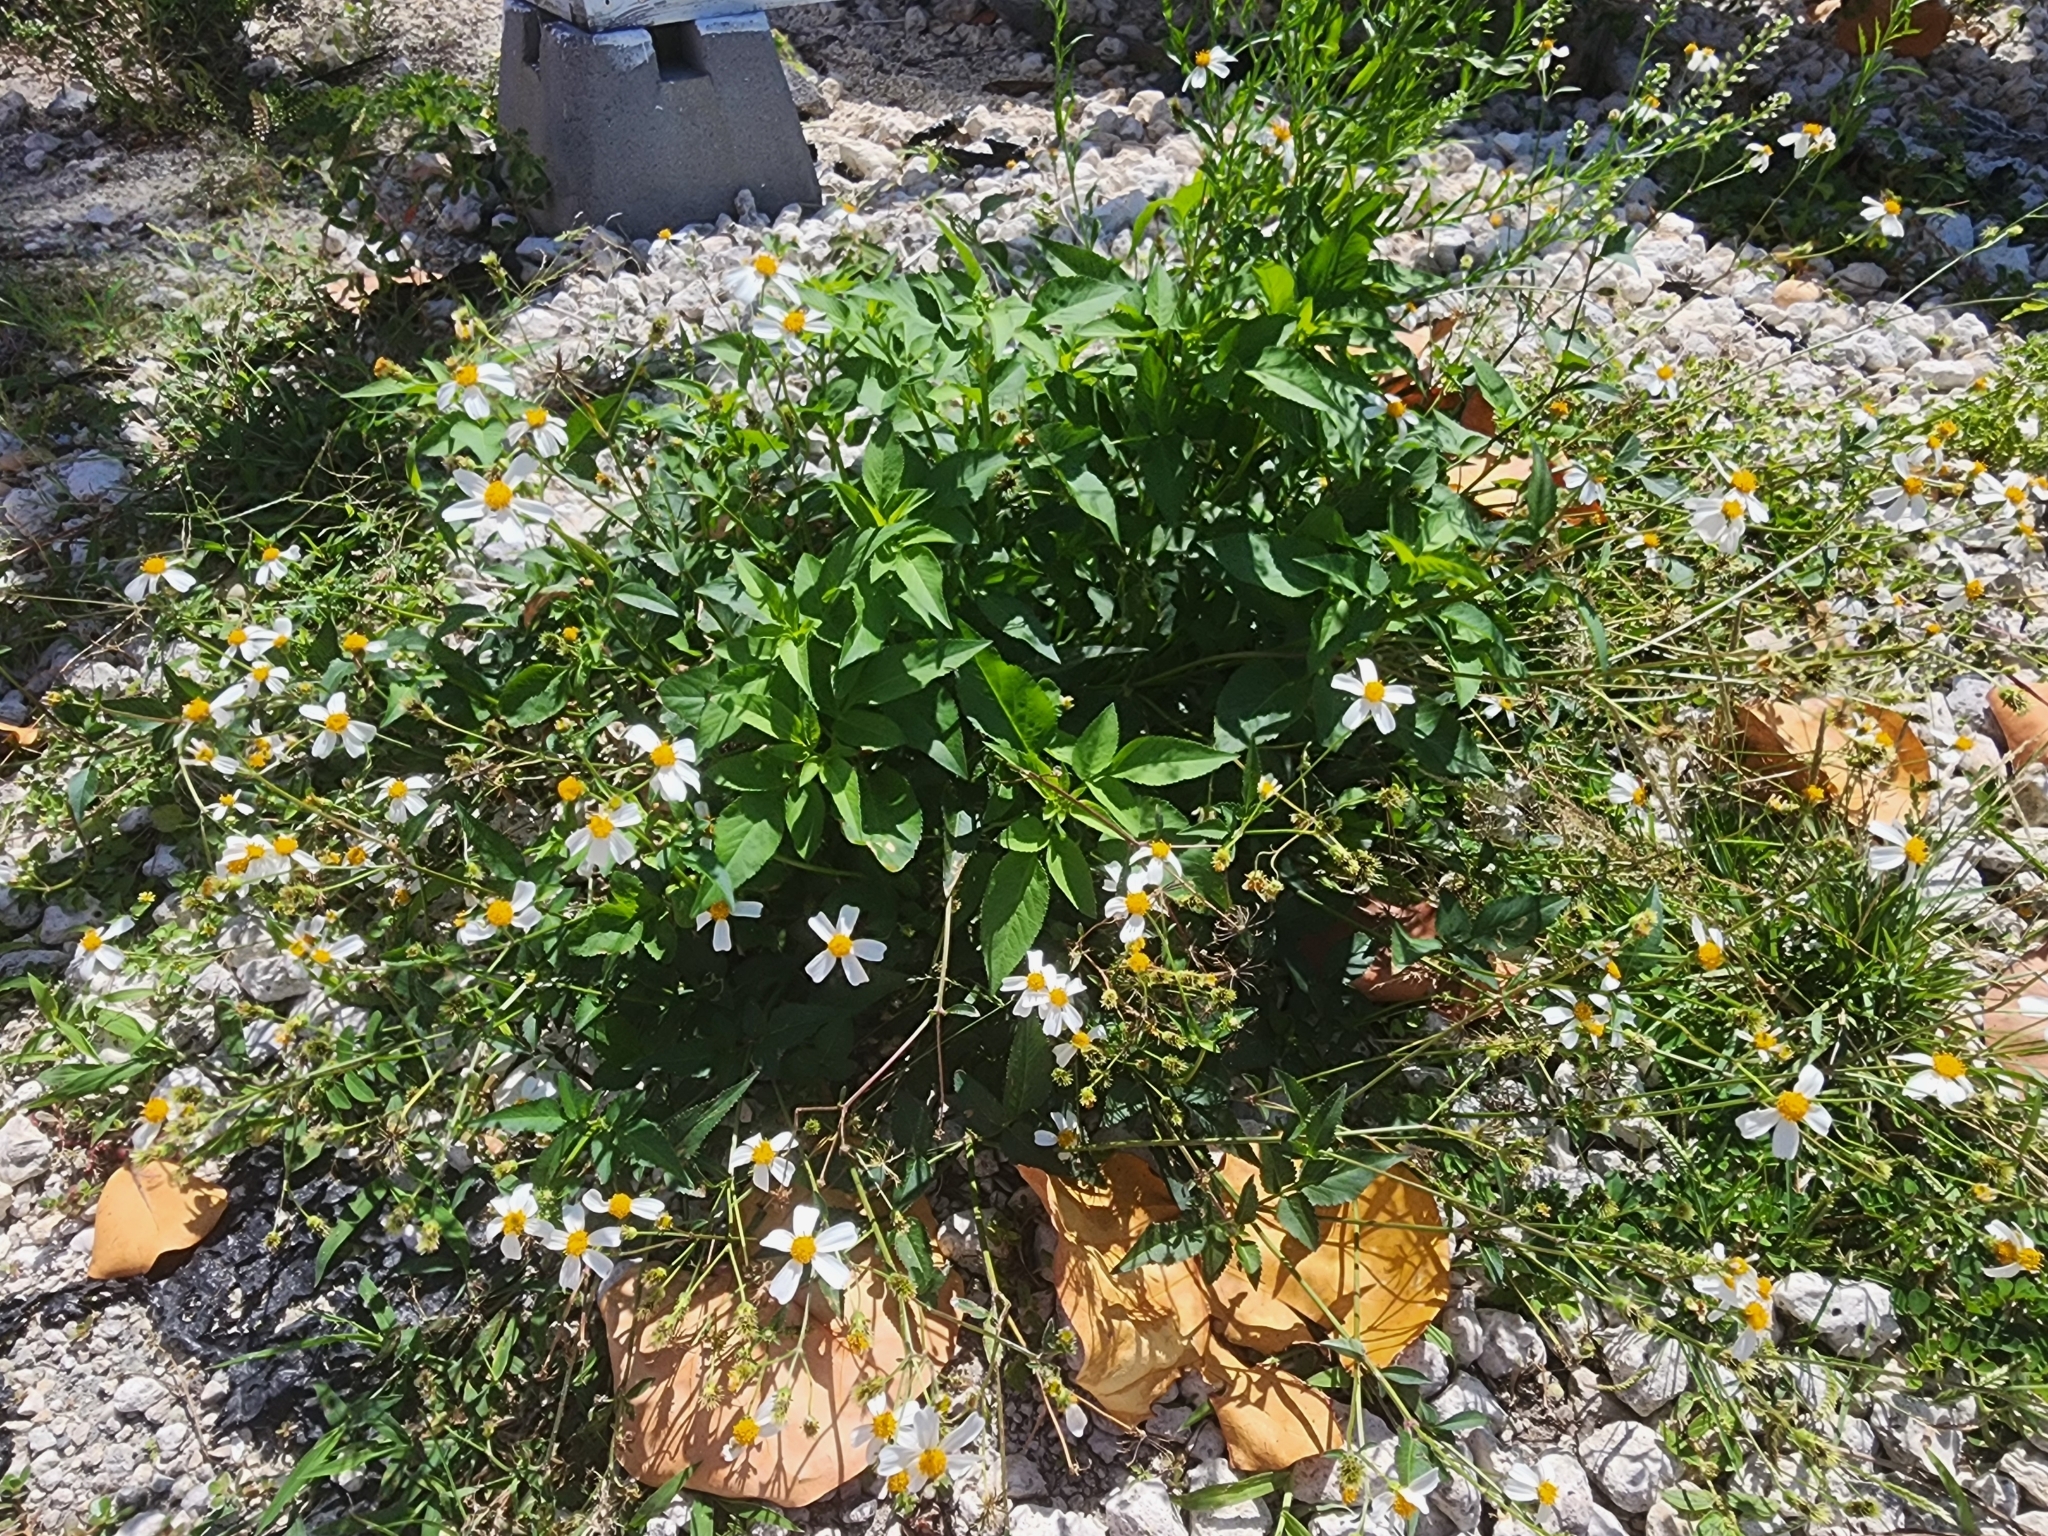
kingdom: Plantae
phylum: Tracheophyta
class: Magnoliopsida
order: Asterales
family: Asteraceae
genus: Bidens
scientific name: Bidens alba
